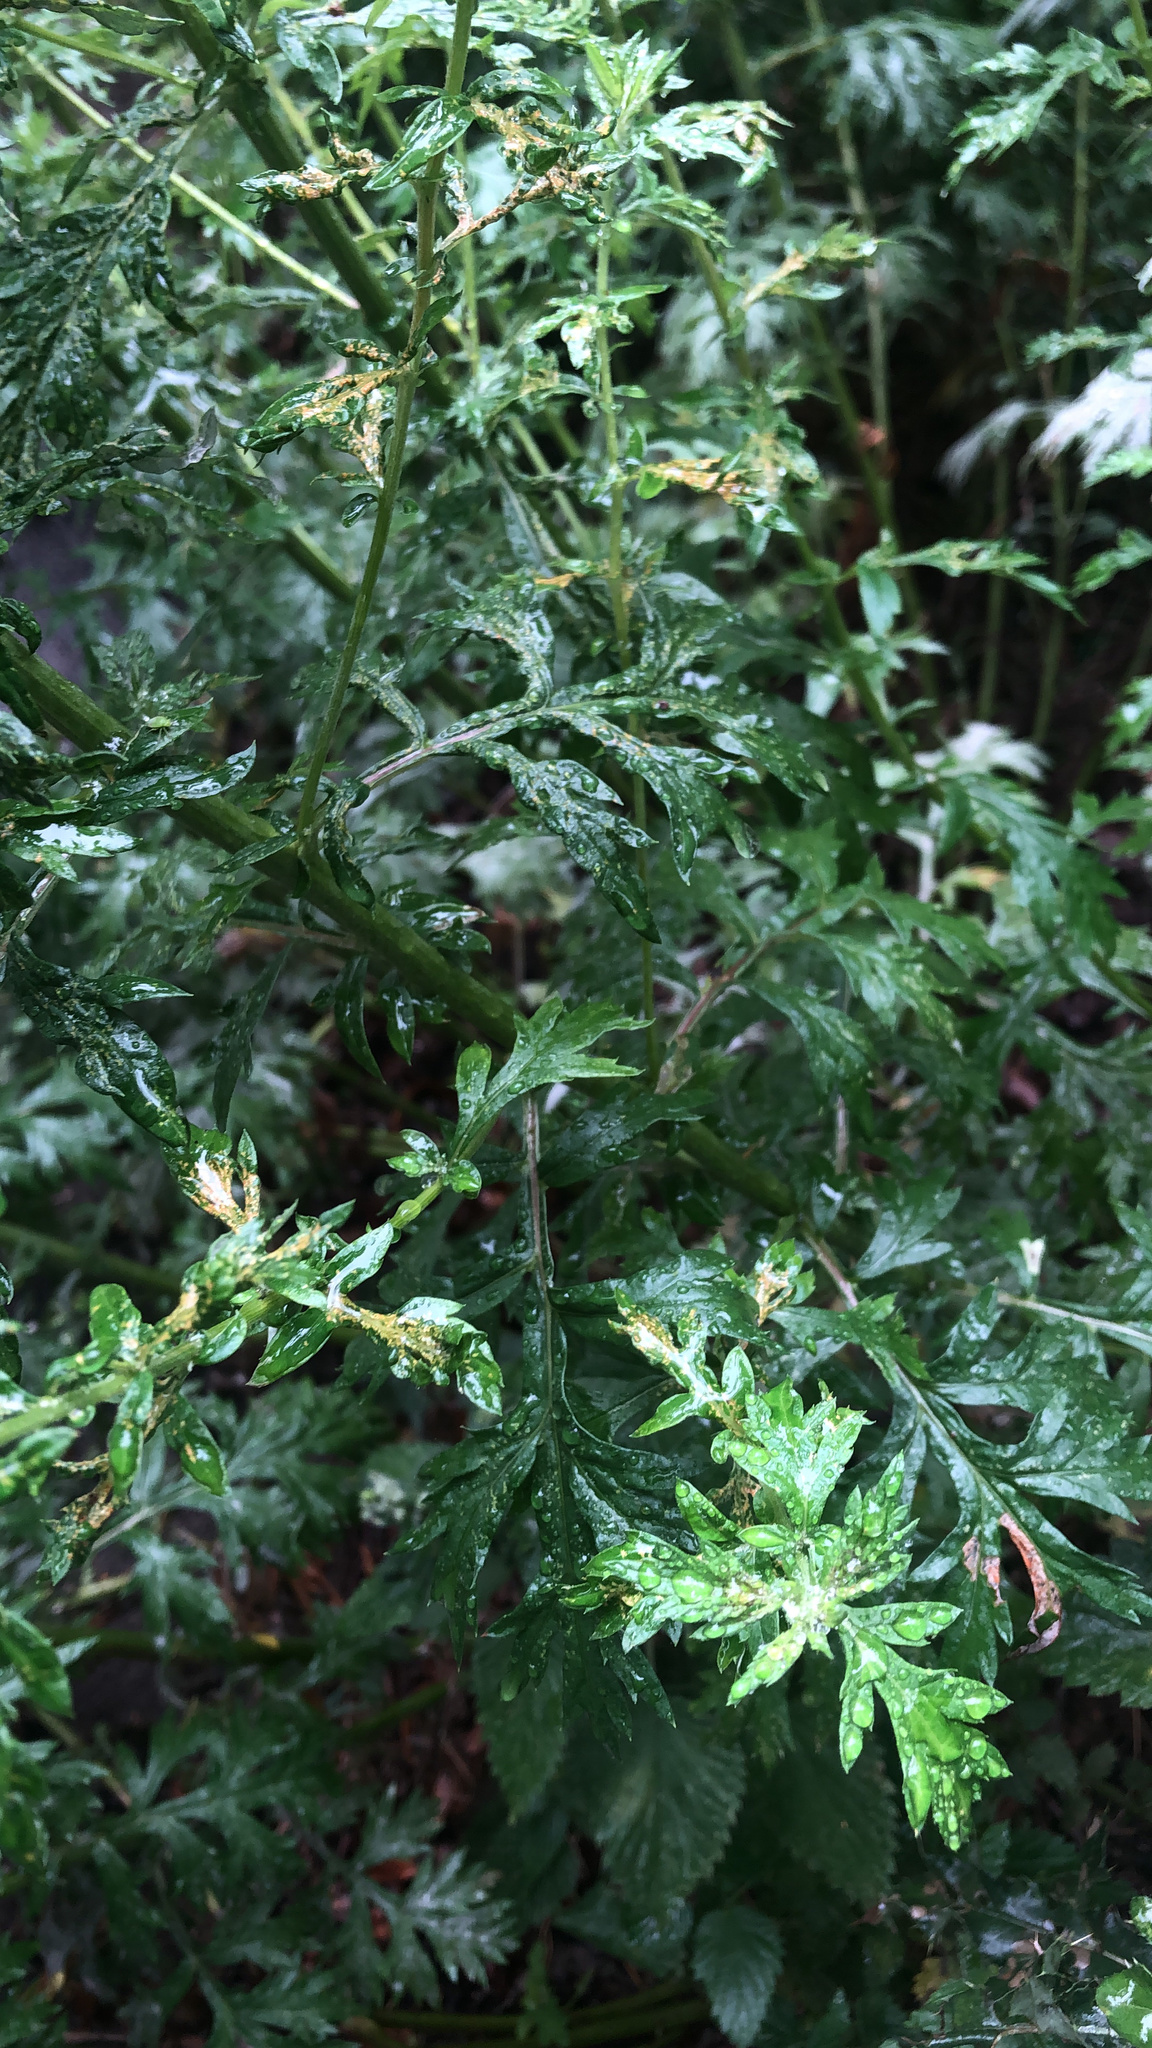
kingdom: Plantae
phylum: Tracheophyta
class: Magnoliopsida
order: Asterales
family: Asteraceae
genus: Artemisia
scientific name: Artemisia vulgaris
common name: Mugwort
